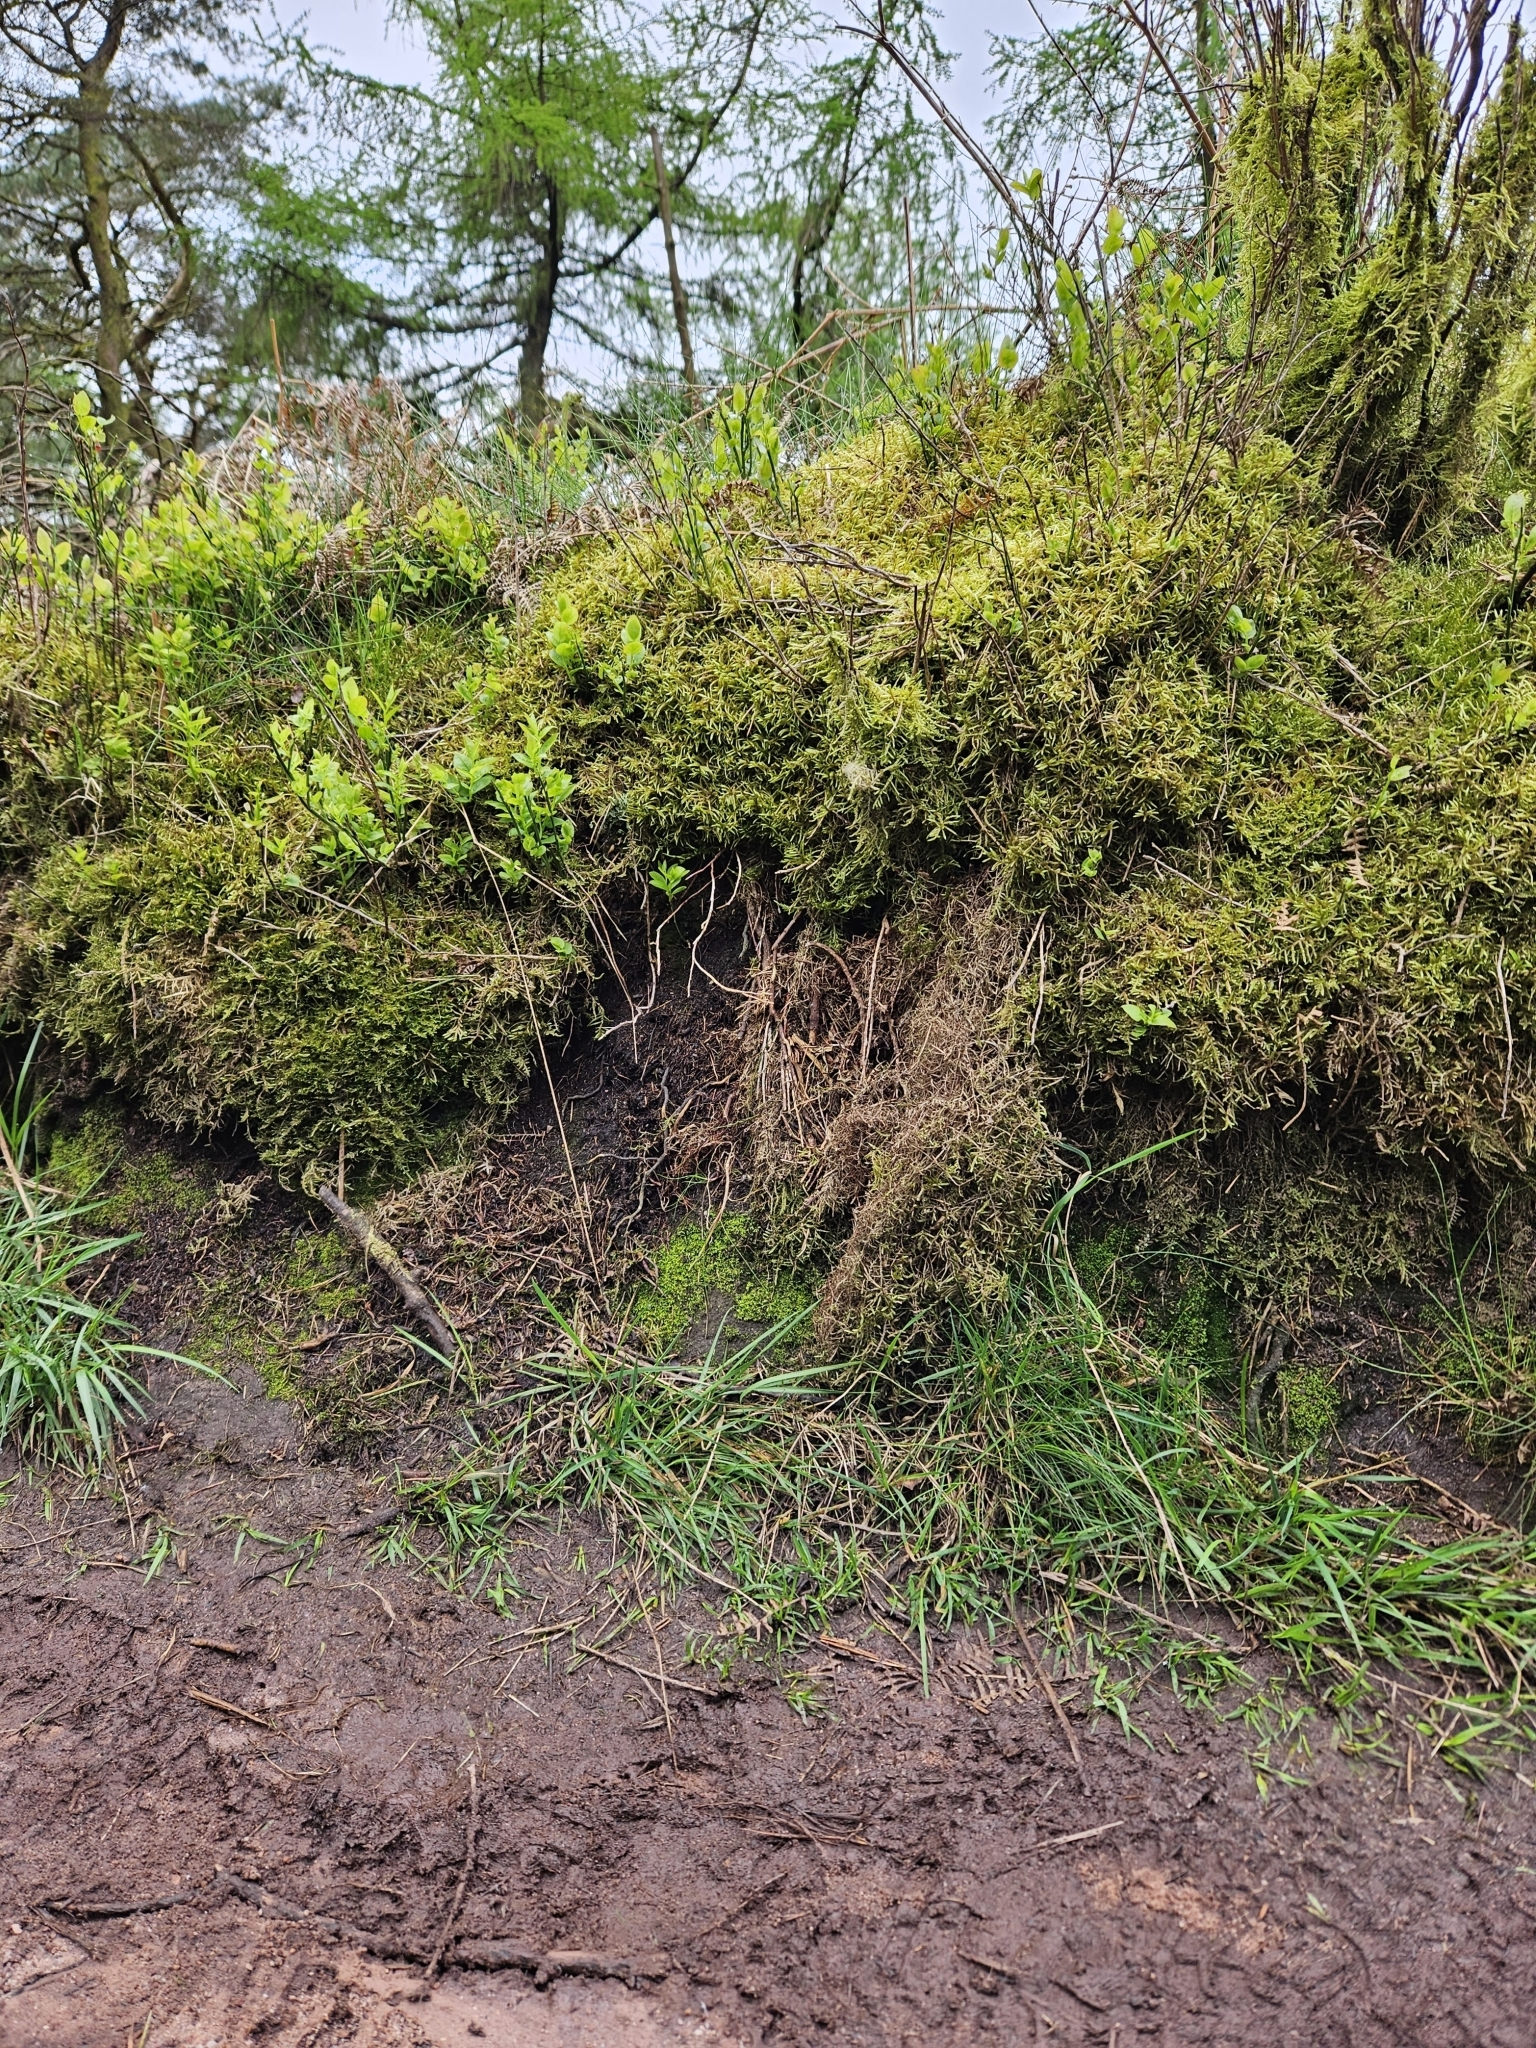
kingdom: Plantae
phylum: Marchantiophyta
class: Jungermanniopsida
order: Jungermanniales
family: Lepidoziaceae
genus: Lepidozia
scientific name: Lepidozia reptans
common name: Creeping fingerwort
